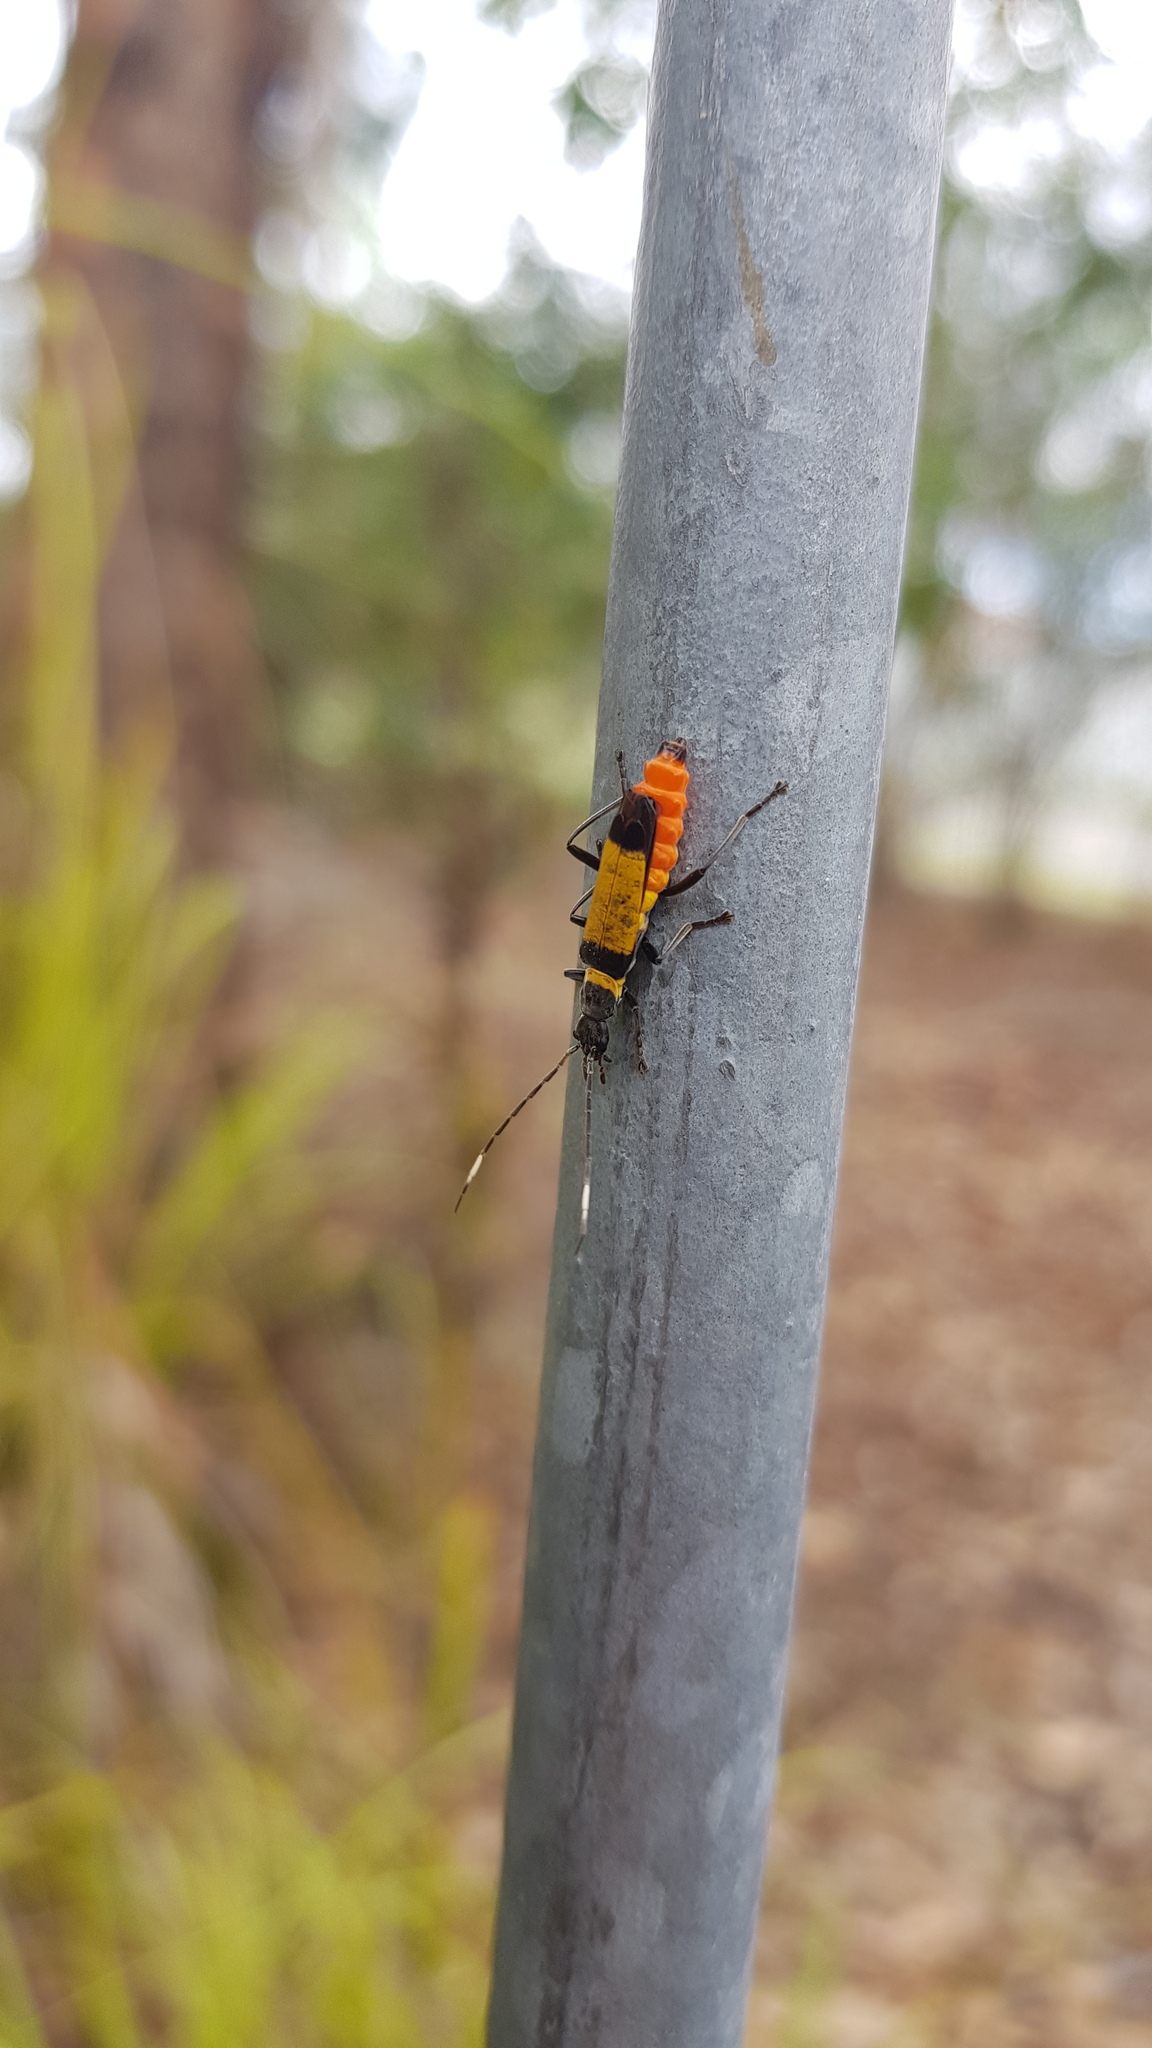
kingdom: Animalia
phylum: Arthropoda
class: Insecta
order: Coleoptera
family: Cantharidae
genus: Chauliognathus
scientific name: Chauliognathus
